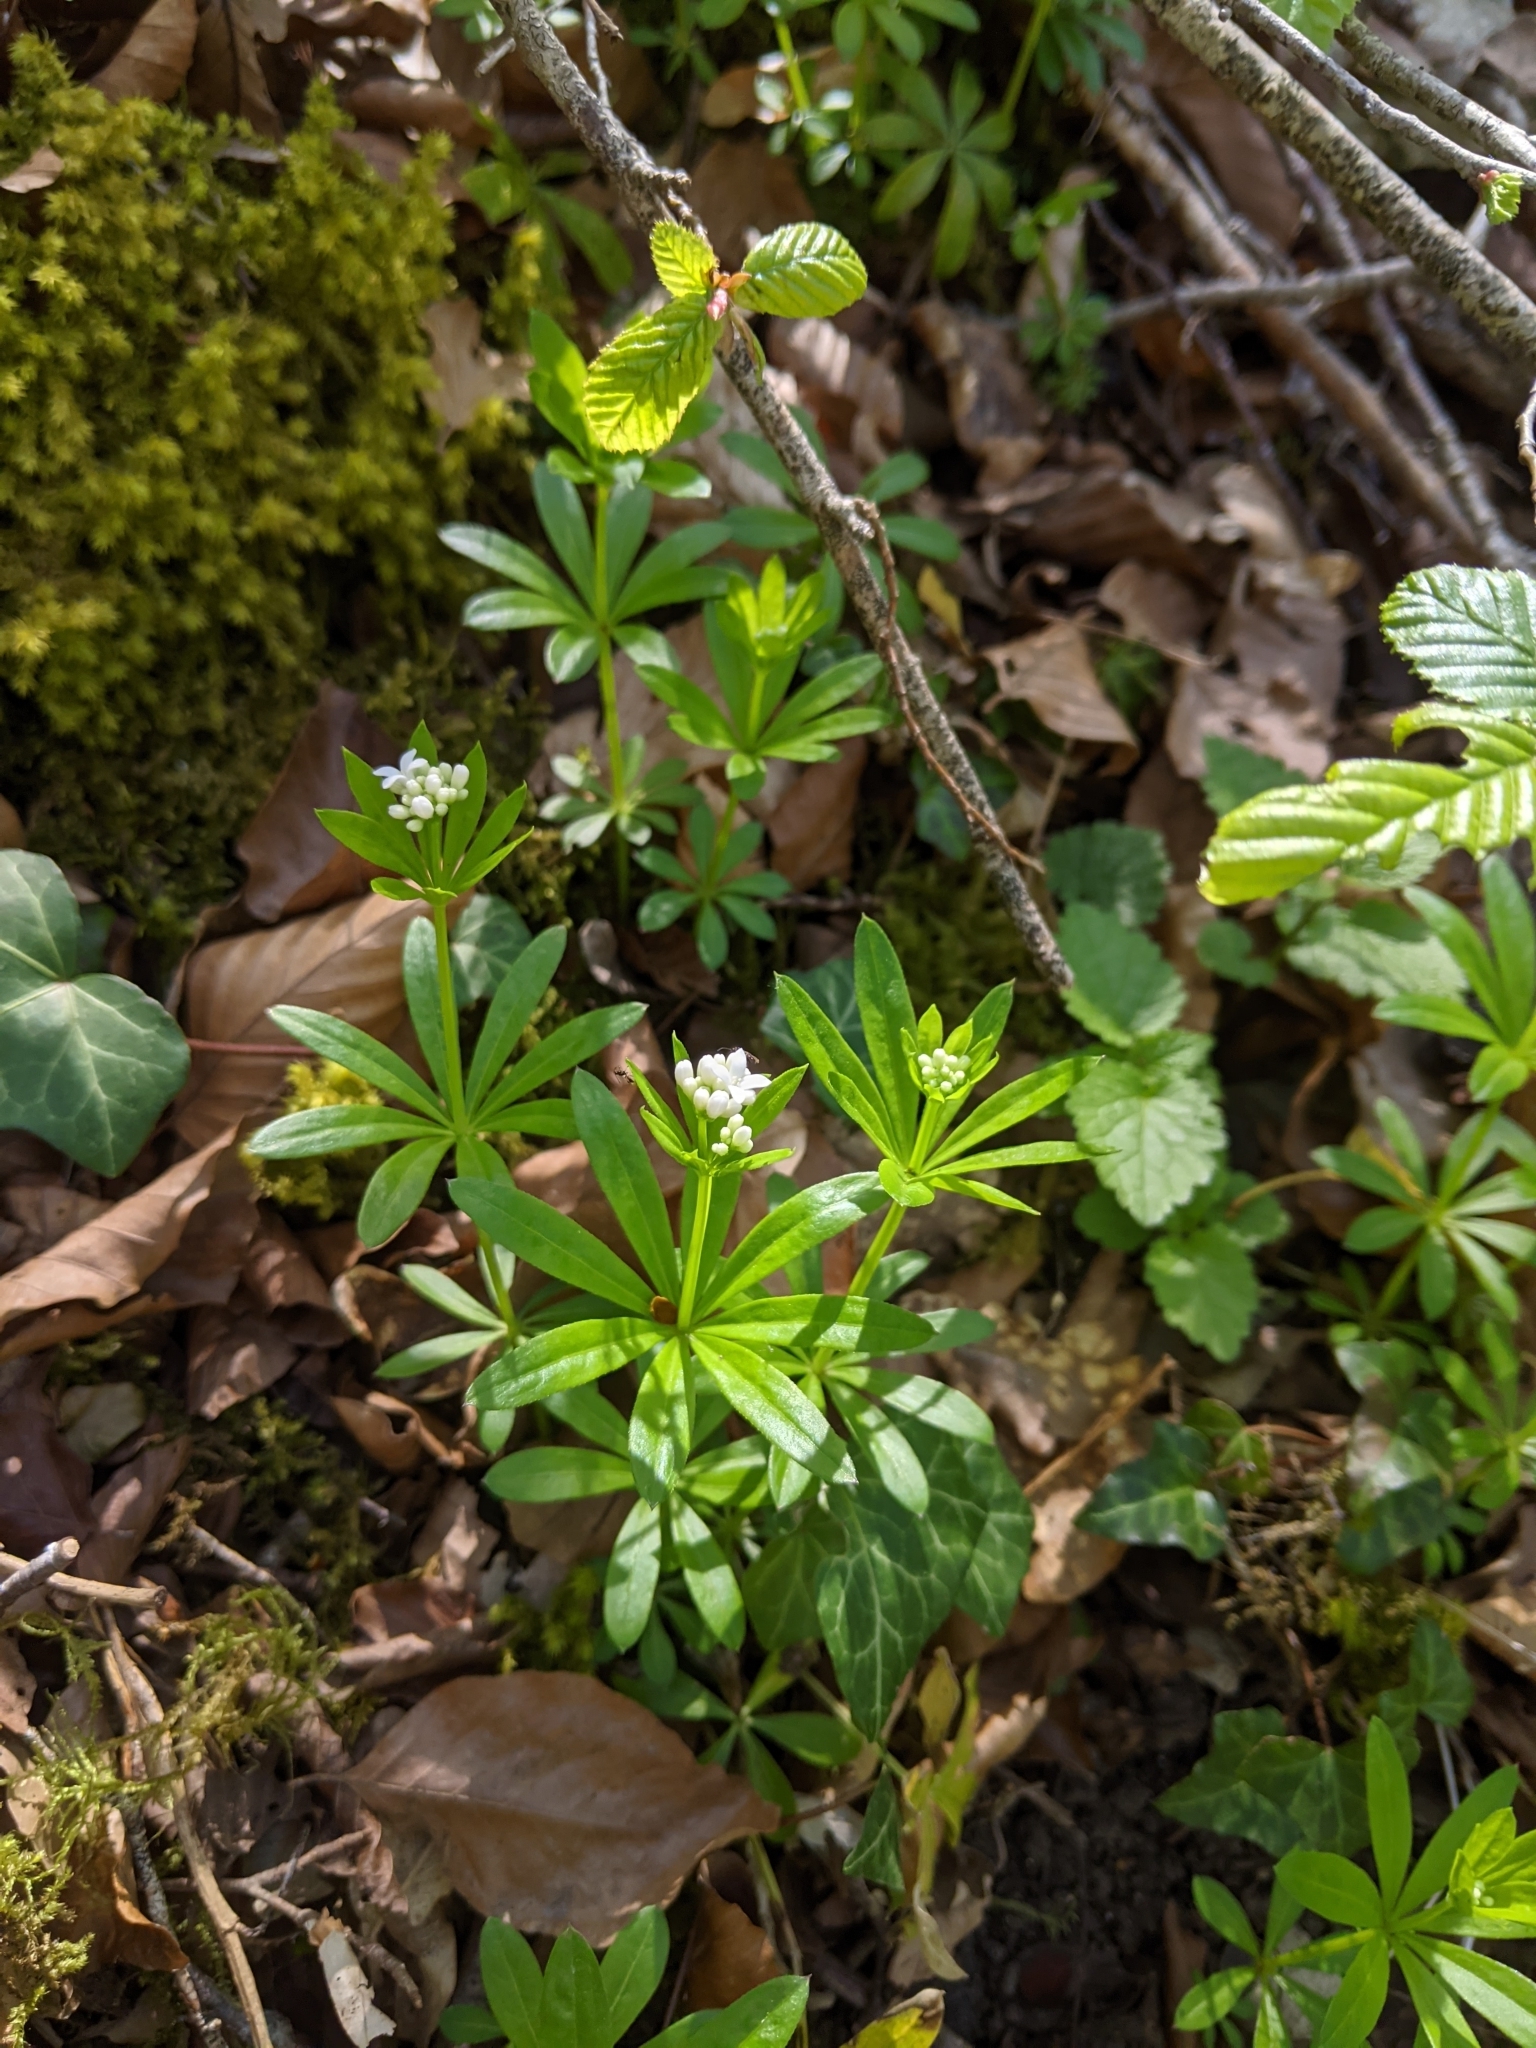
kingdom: Plantae
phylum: Tracheophyta
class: Magnoliopsida
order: Gentianales
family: Rubiaceae
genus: Galium
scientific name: Galium odoratum
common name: Sweet woodruff
